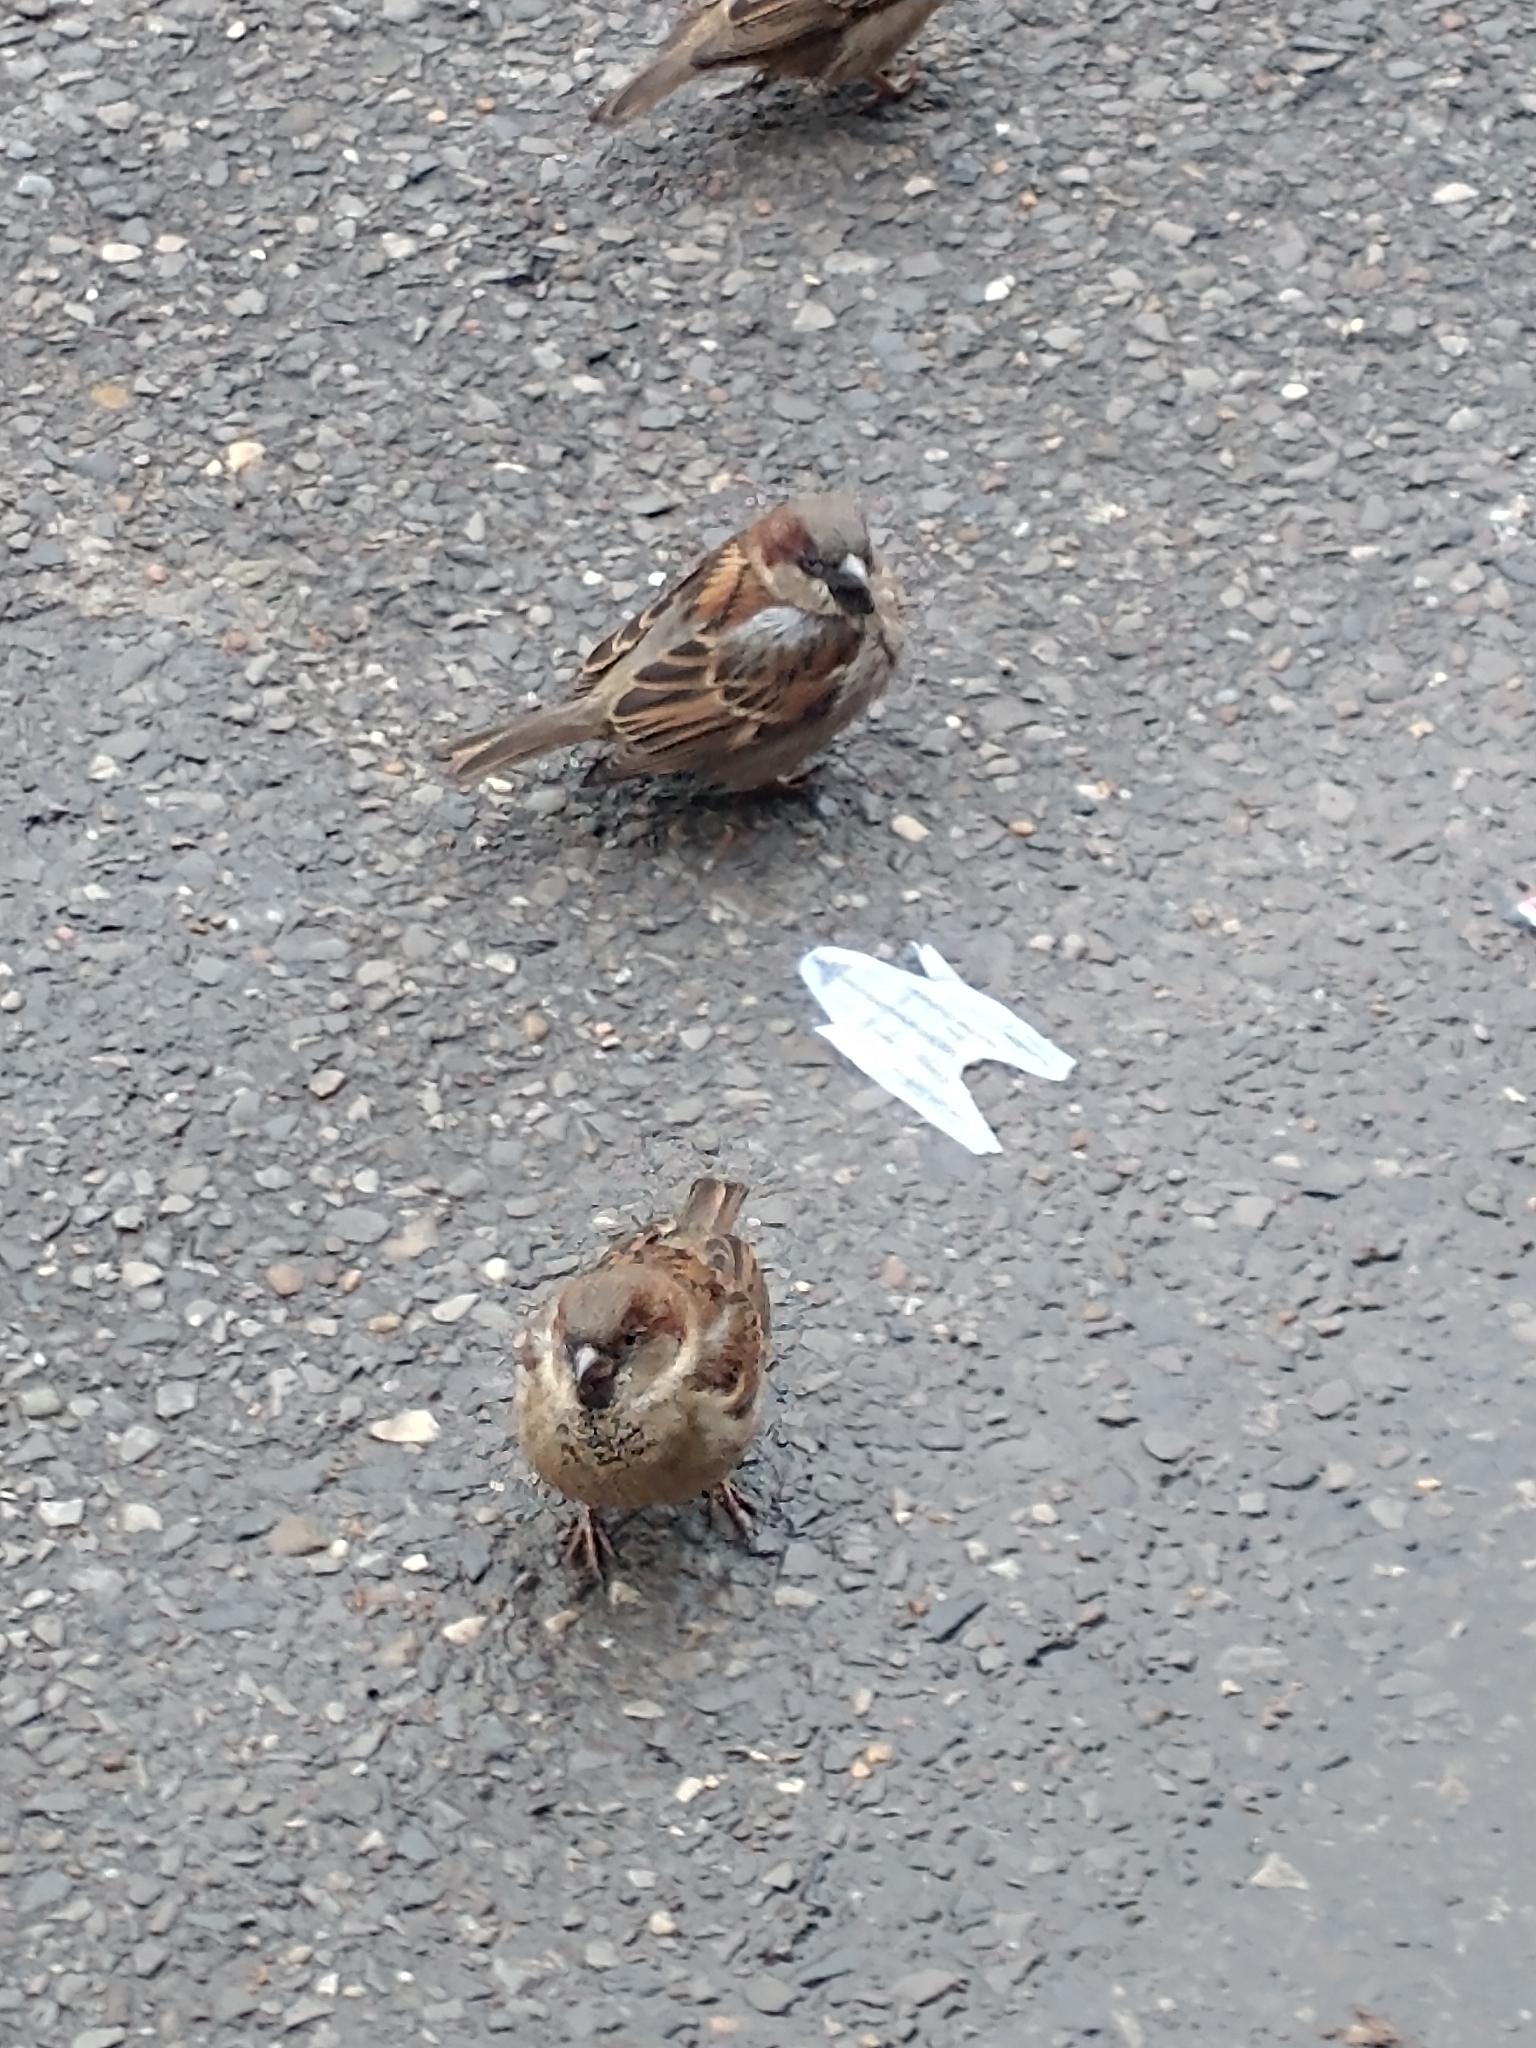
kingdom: Animalia
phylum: Chordata
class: Aves
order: Passeriformes
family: Passeridae
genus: Passer
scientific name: Passer domesticus
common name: House sparrow
